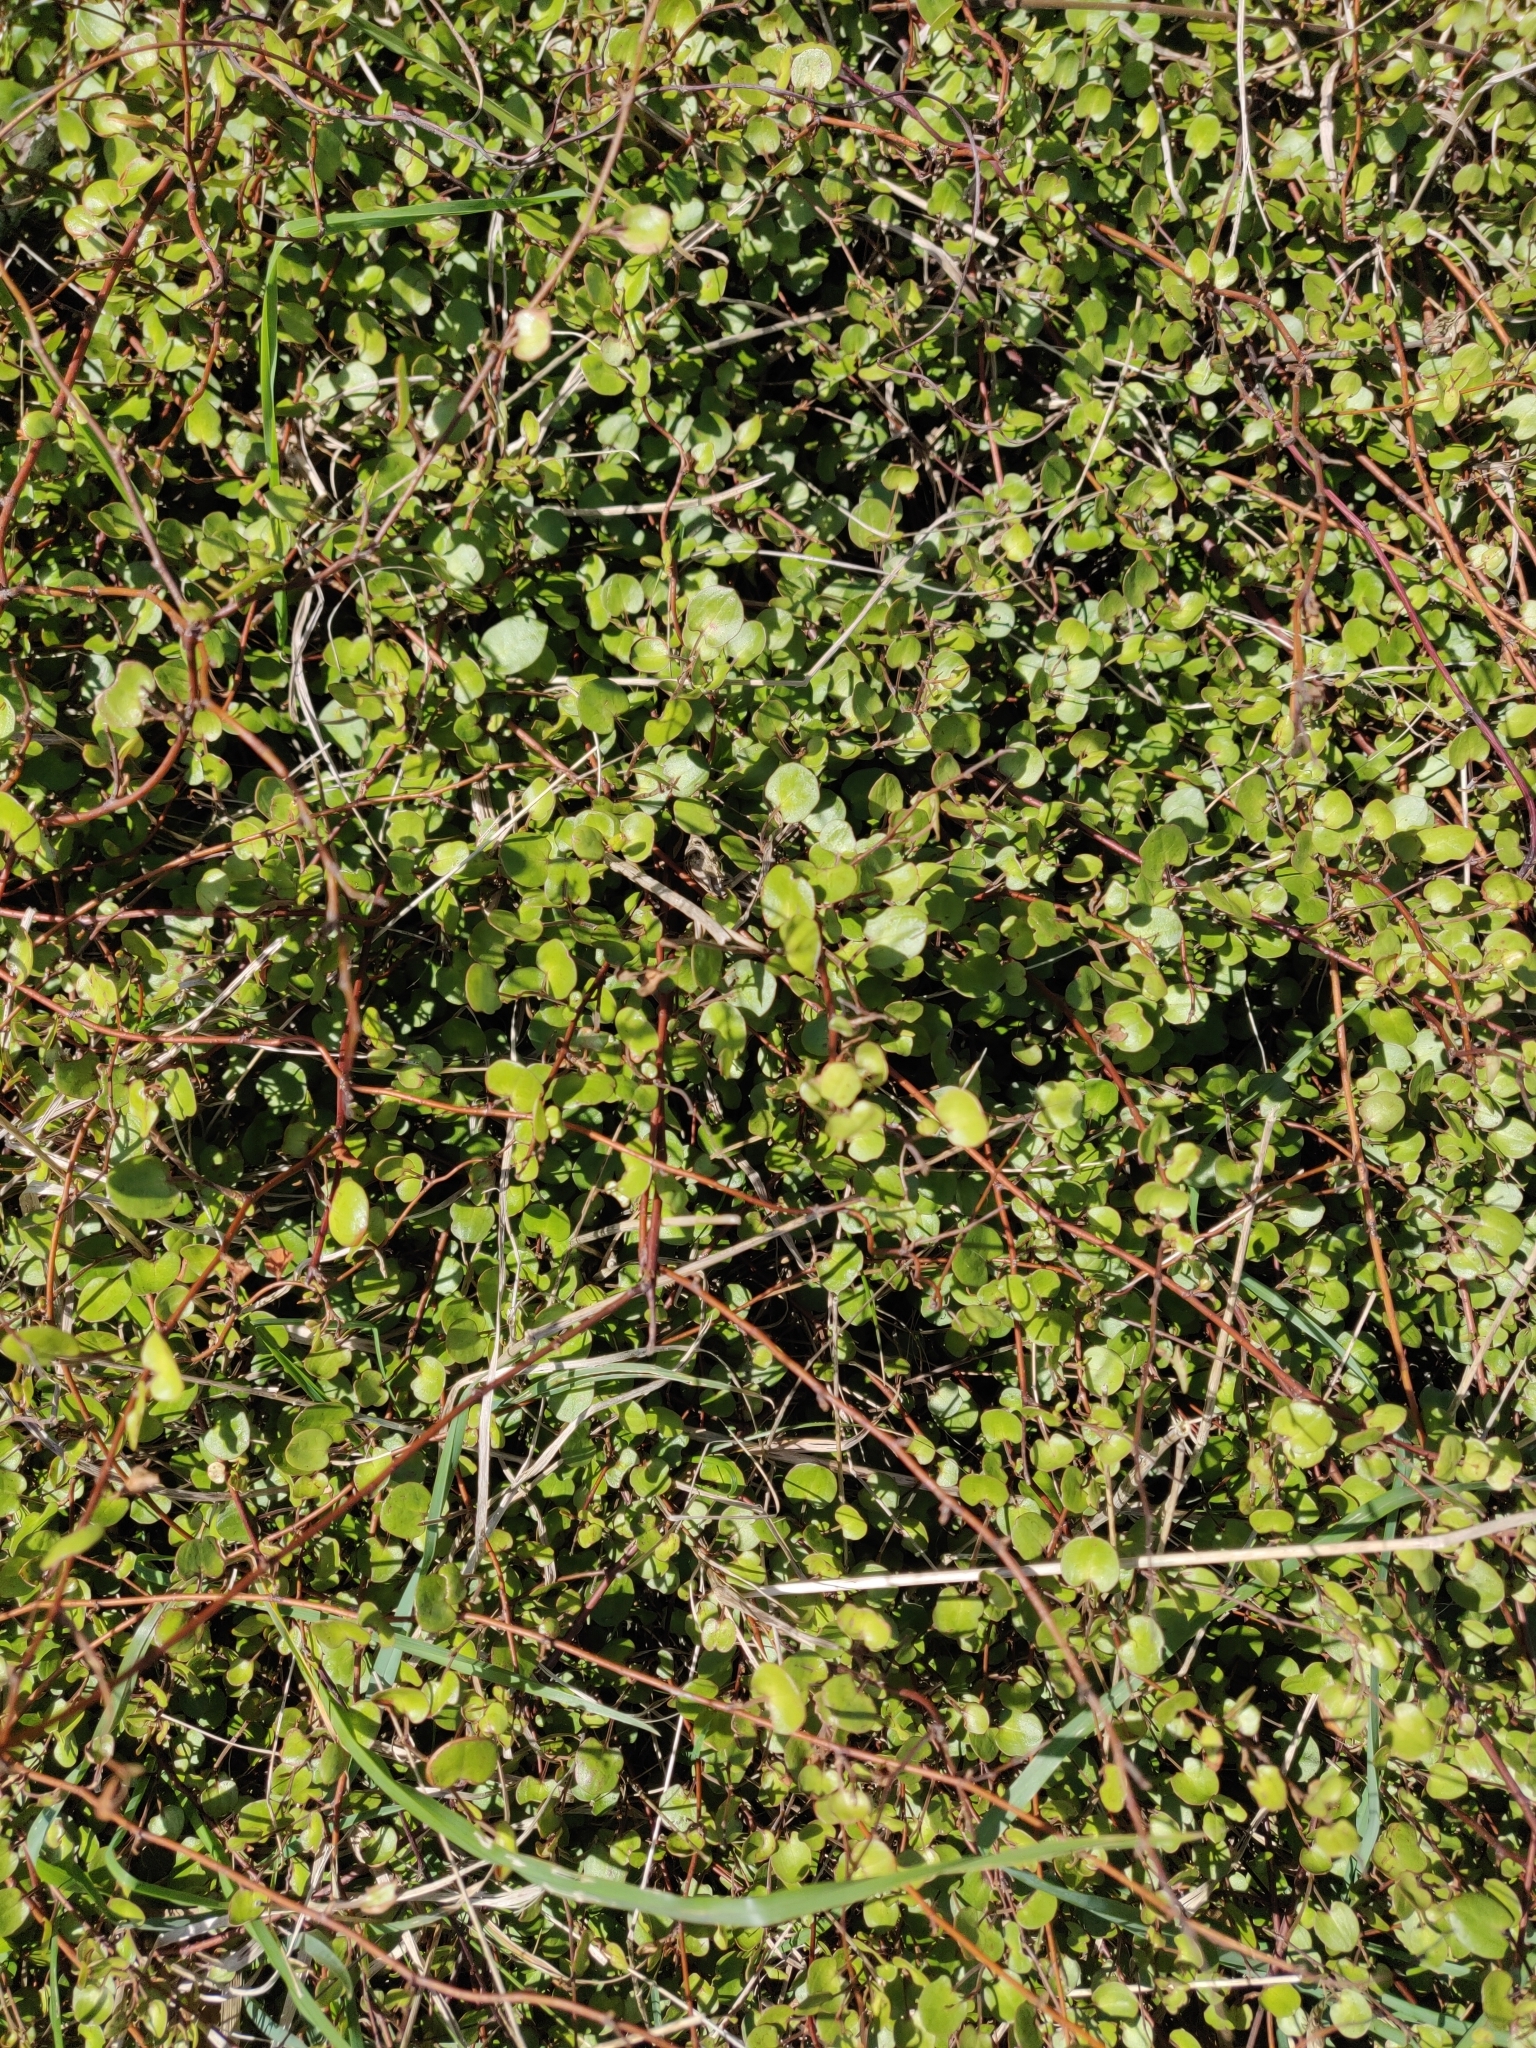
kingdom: Plantae
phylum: Tracheophyta
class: Magnoliopsida
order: Caryophyllales
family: Polygonaceae
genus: Muehlenbeckia
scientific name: Muehlenbeckia complexa
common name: Wireplant
